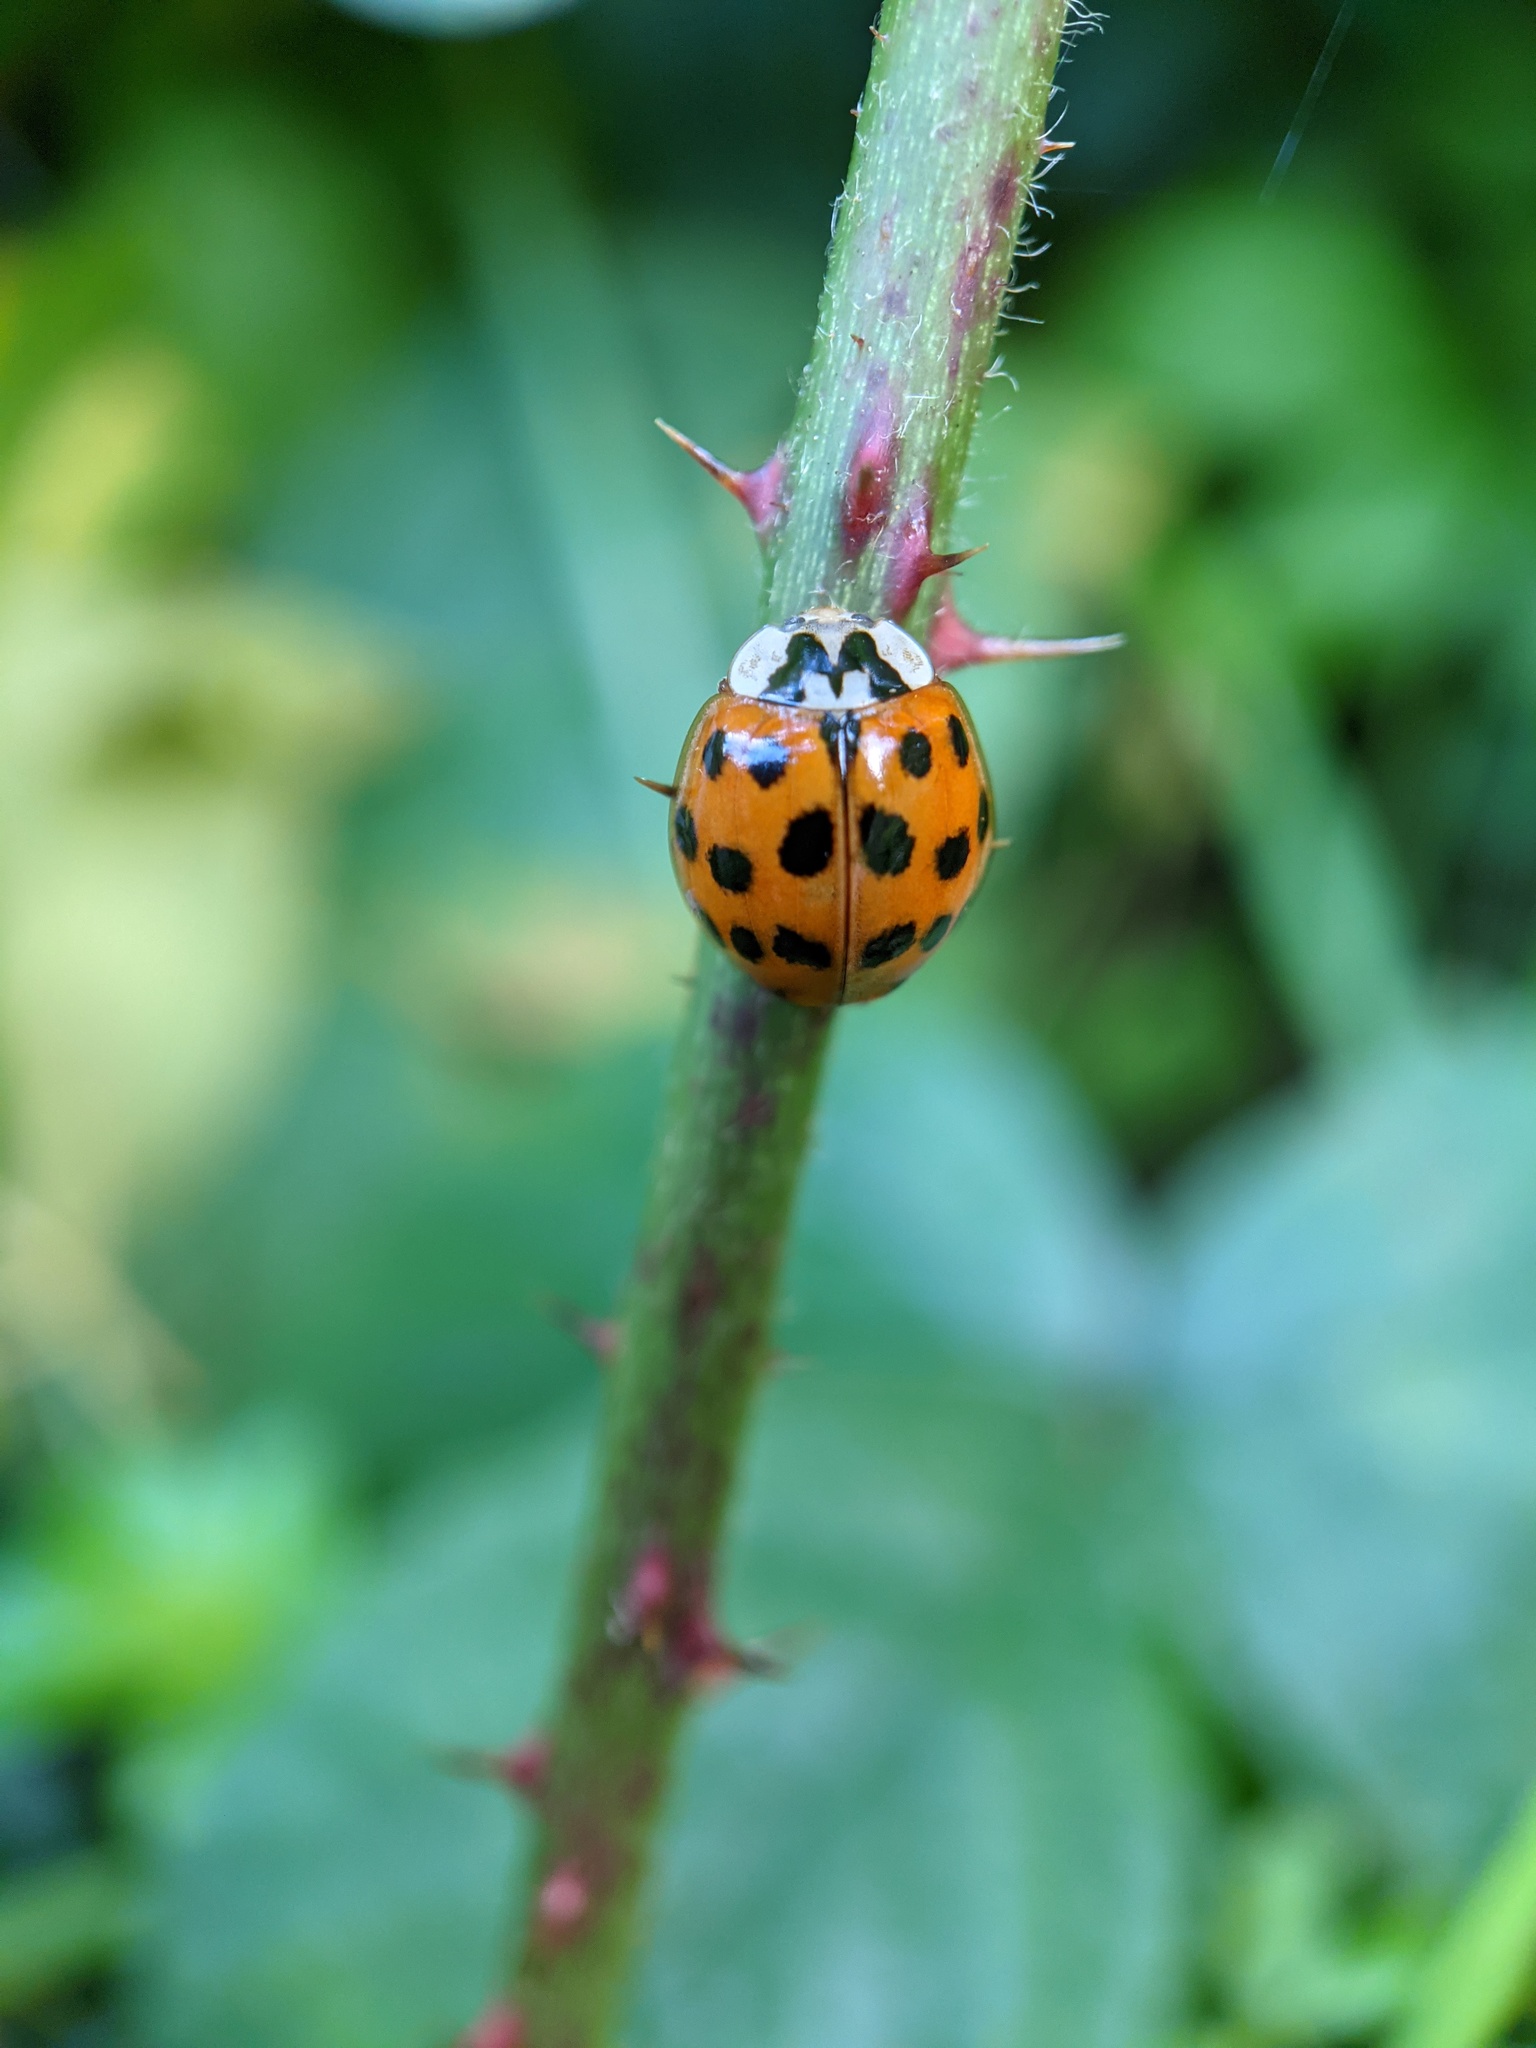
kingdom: Animalia
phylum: Arthropoda
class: Insecta
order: Coleoptera
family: Coccinellidae
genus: Harmonia
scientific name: Harmonia axyridis
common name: Harlequin ladybird
